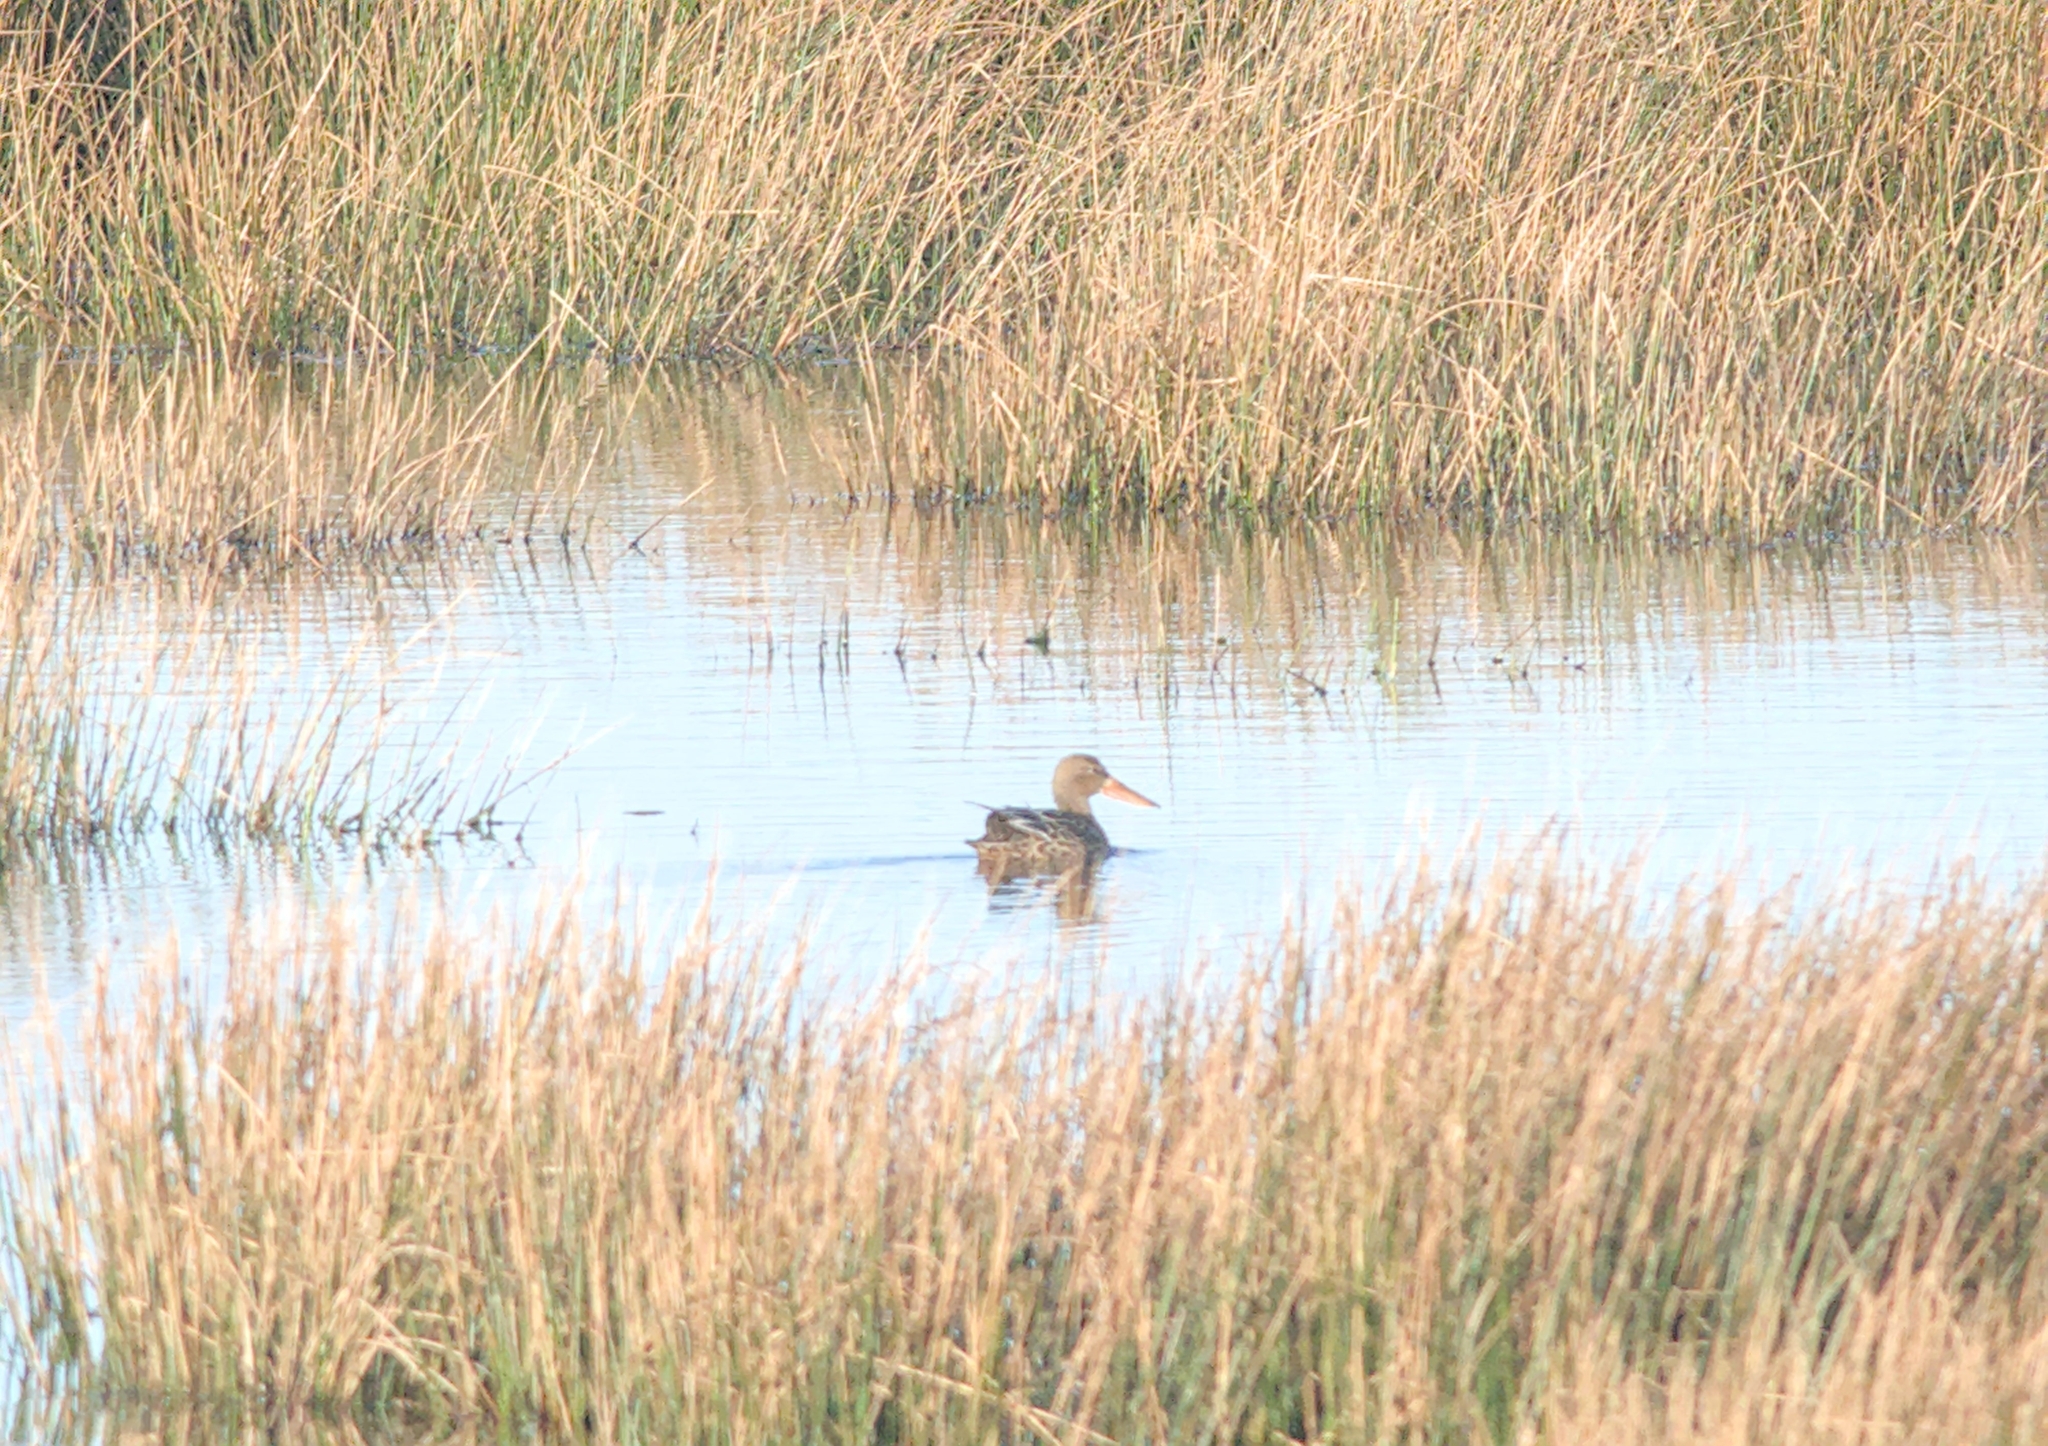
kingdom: Animalia
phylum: Chordata
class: Aves
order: Anseriformes
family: Anatidae
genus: Spatula
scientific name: Spatula clypeata
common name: Northern shoveler
